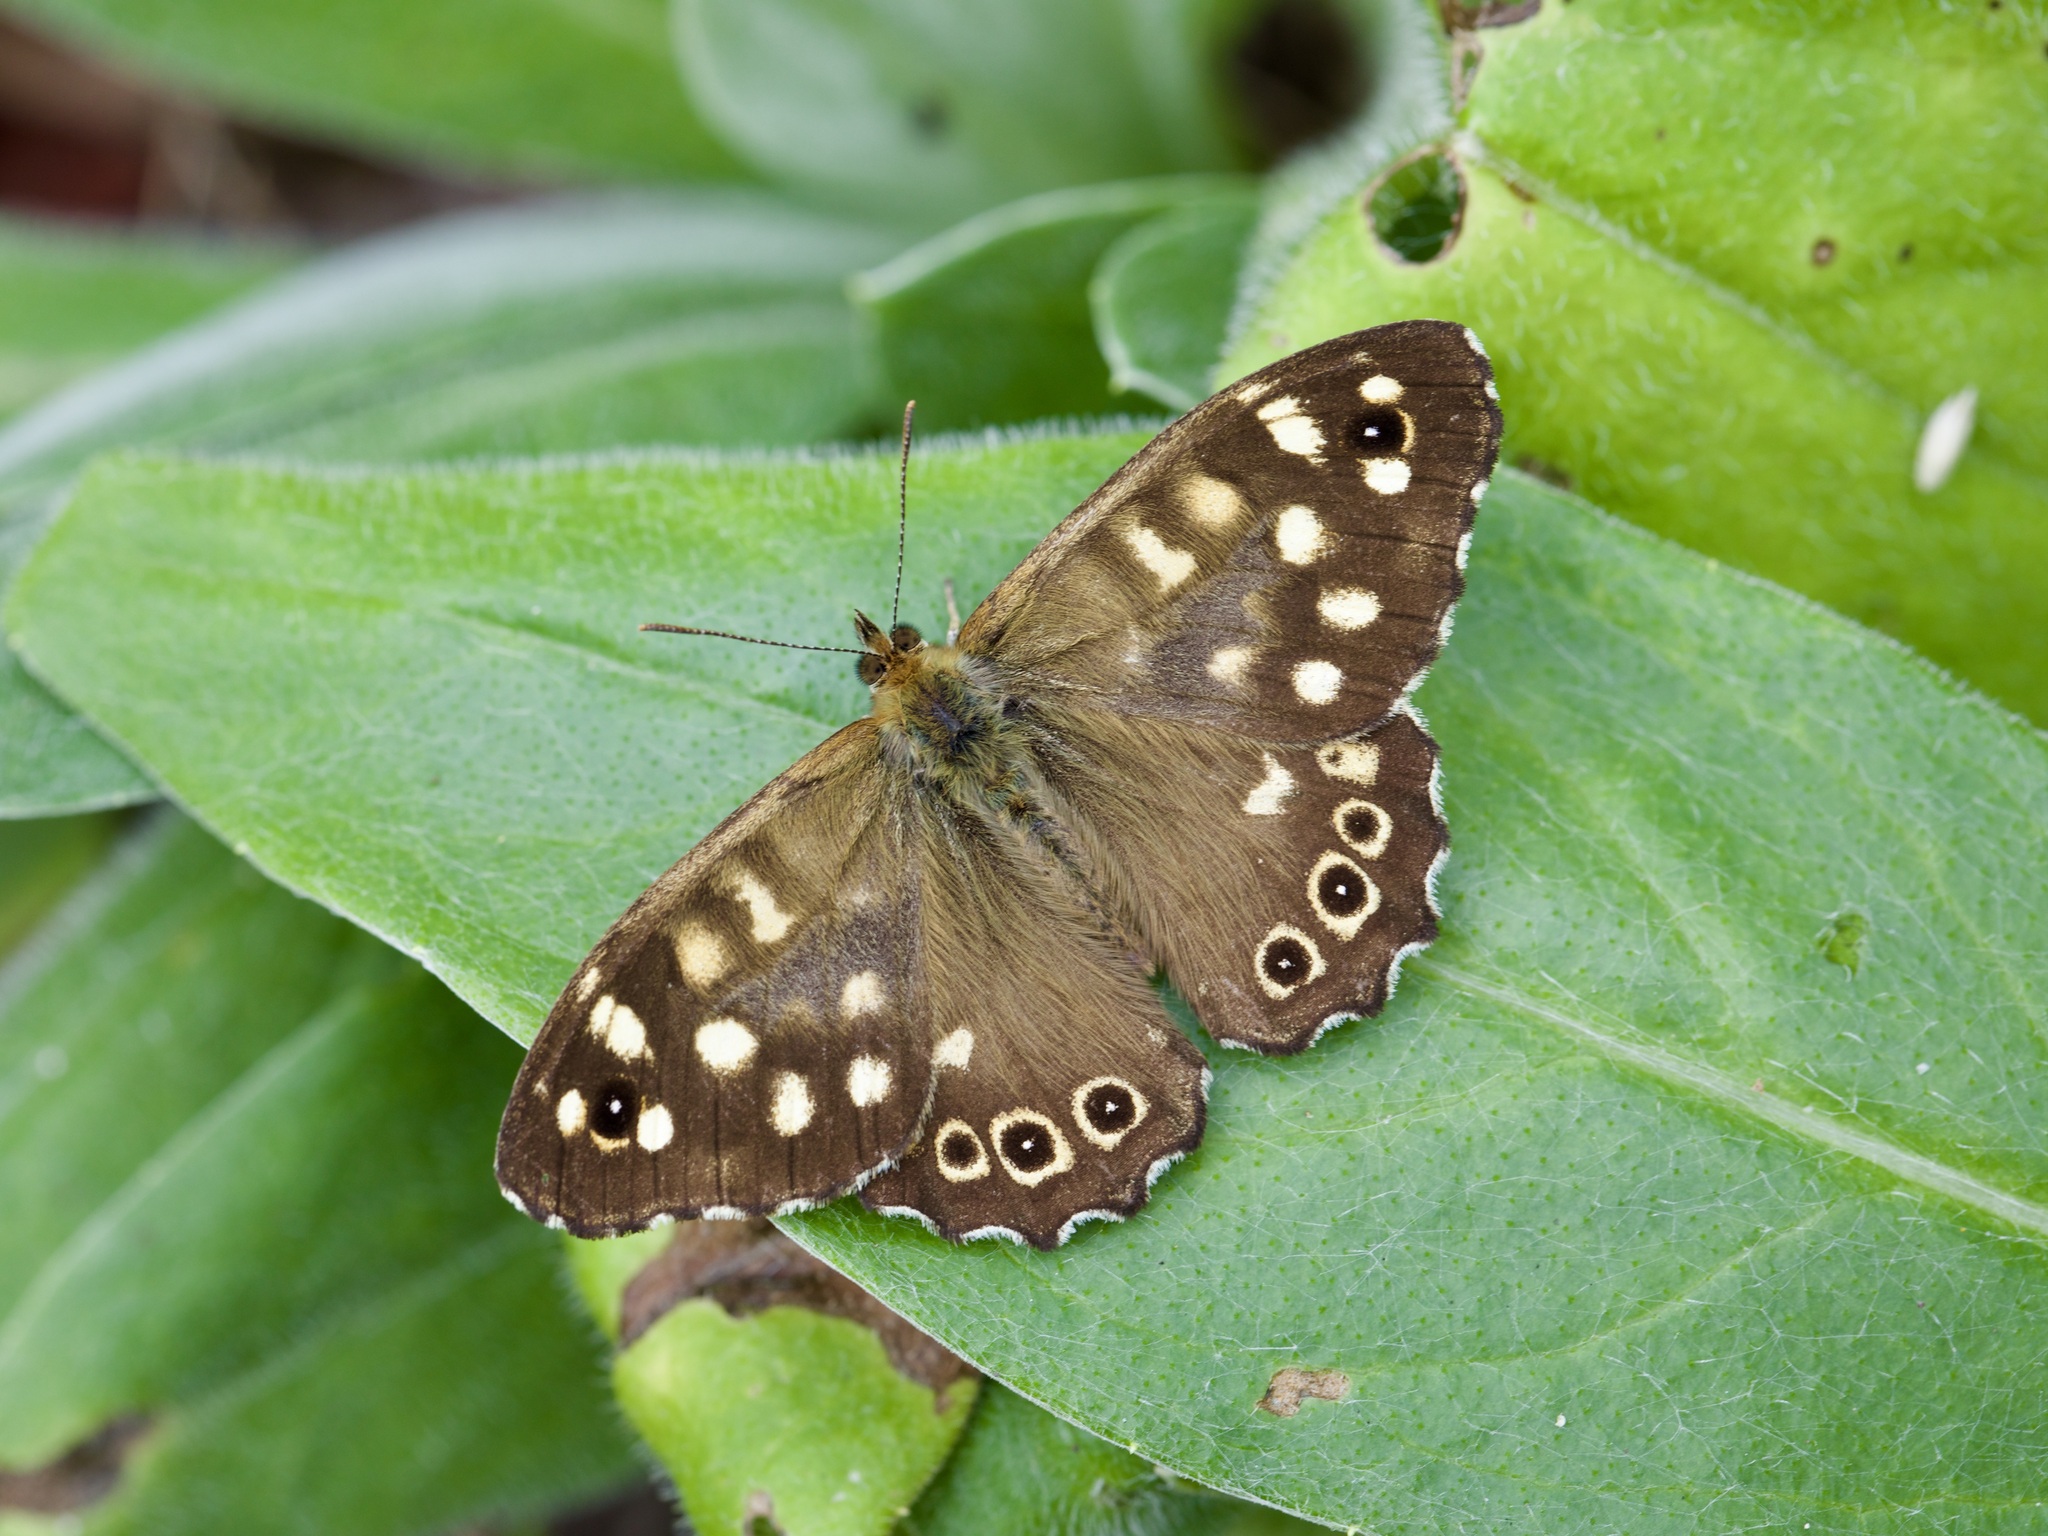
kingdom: Animalia
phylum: Arthropoda
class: Insecta
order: Lepidoptera
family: Nymphalidae
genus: Pararge
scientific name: Pararge aegeria
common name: Speckled wood
